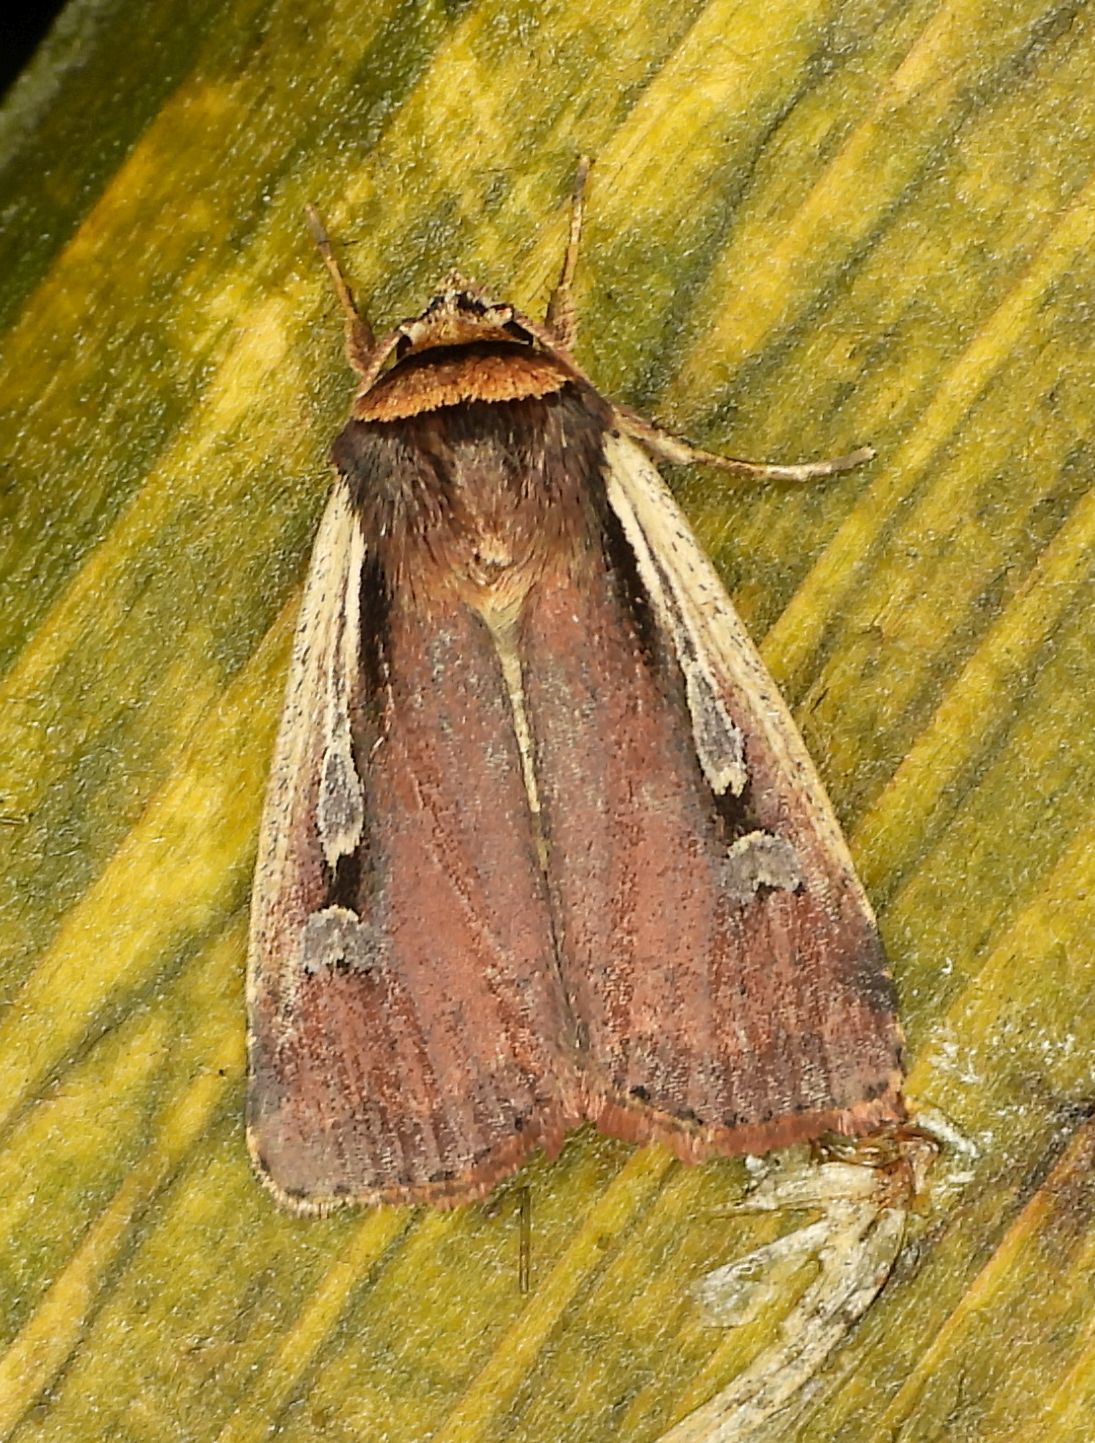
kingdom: Animalia
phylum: Arthropoda
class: Insecta
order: Lepidoptera
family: Noctuidae
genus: Ochropleura
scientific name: Ochropleura implecta
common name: Flame-shouldered dart
